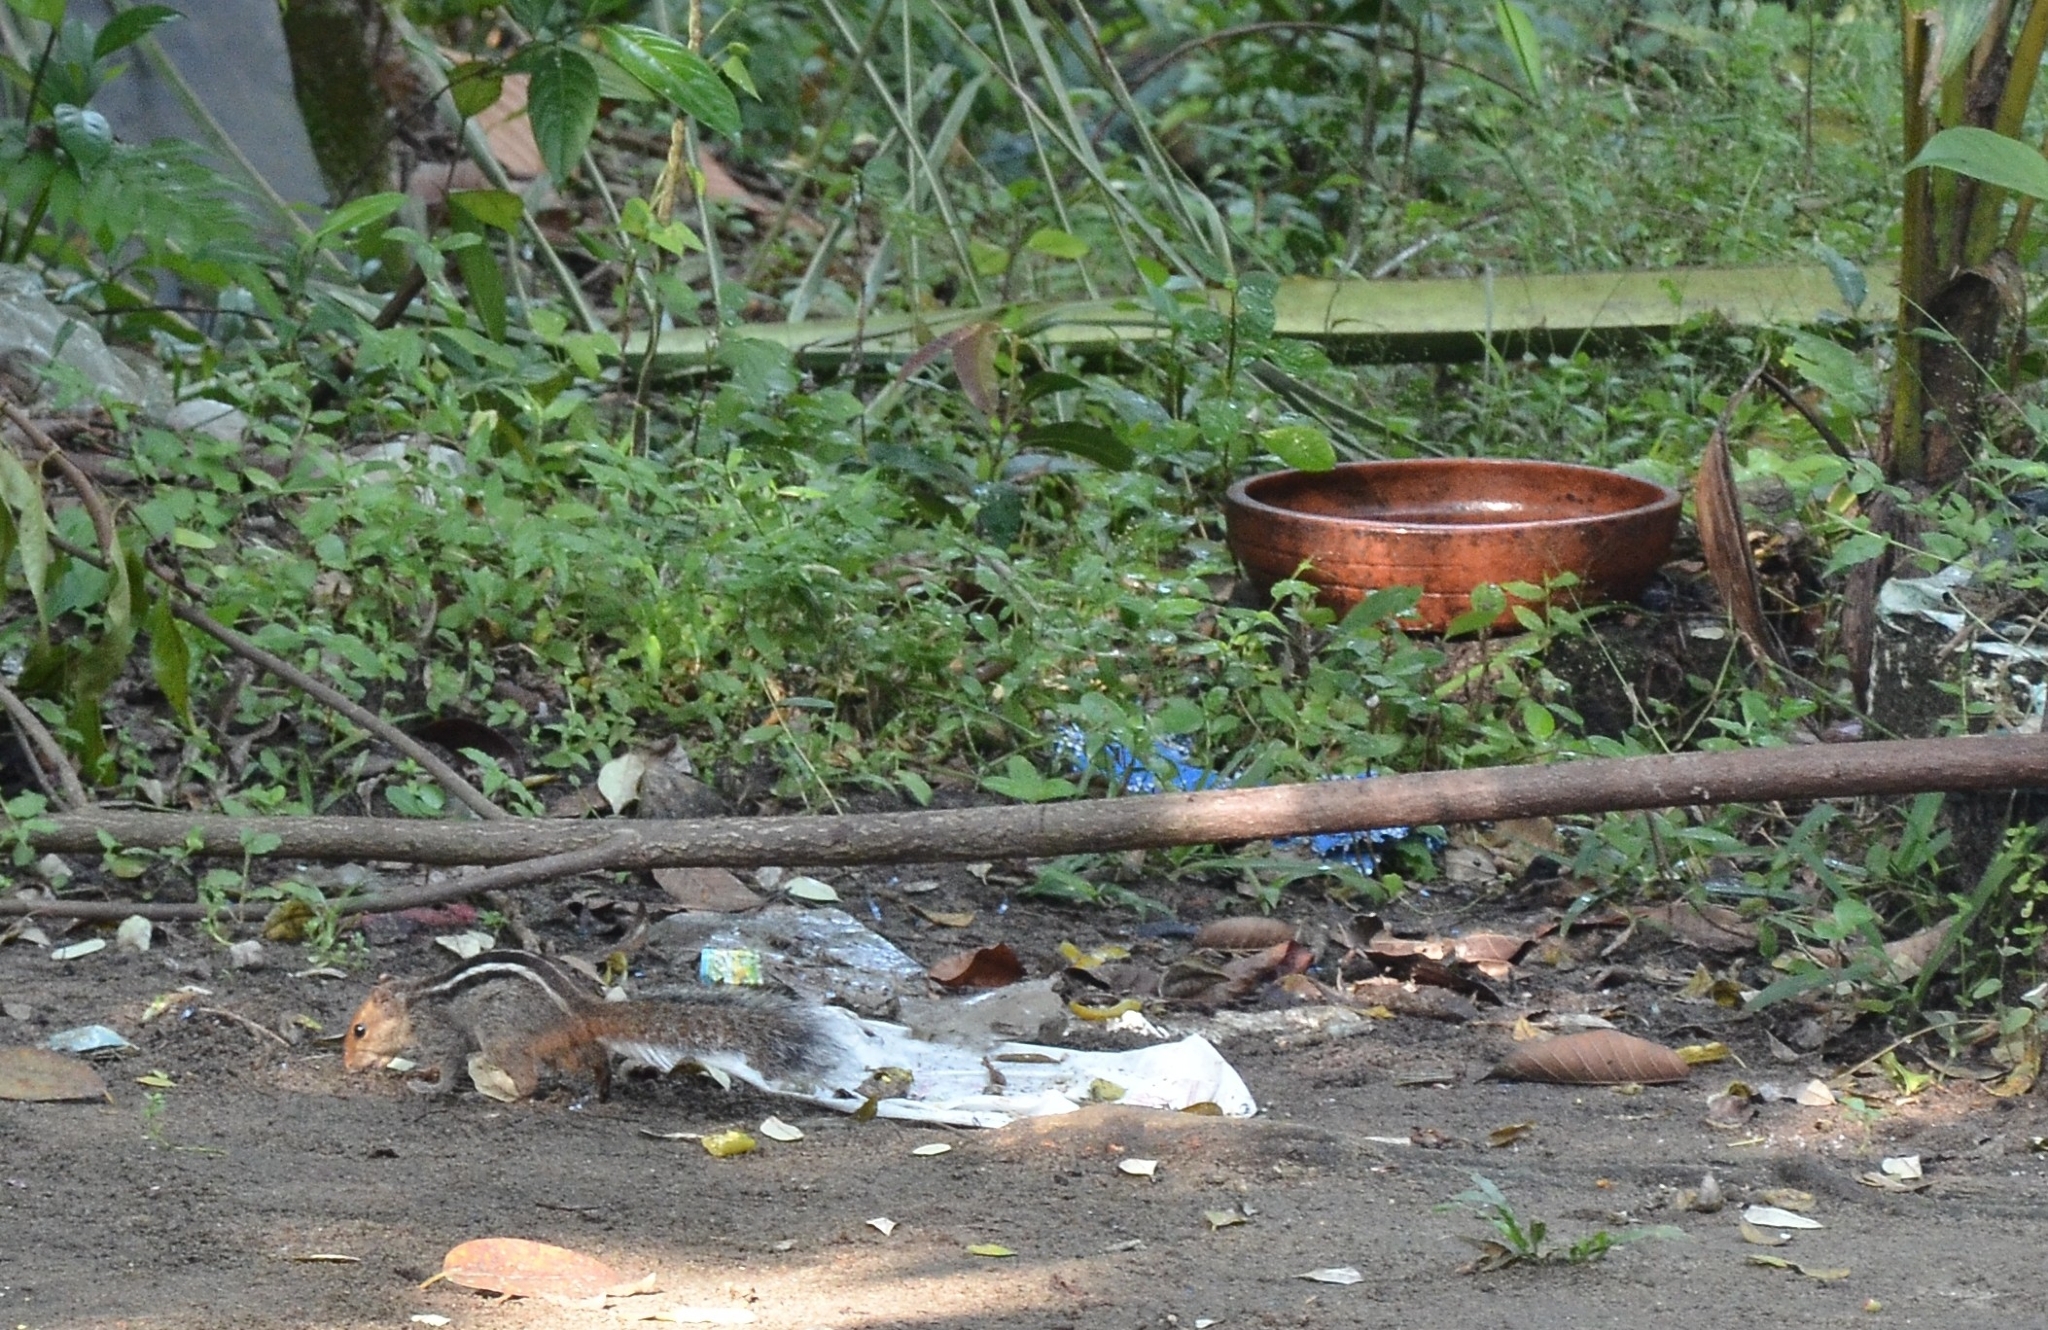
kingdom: Animalia
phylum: Chordata
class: Mammalia
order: Rodentia
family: Sciuridae
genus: Funambulus
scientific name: Funambulus tristriatus
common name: Jungle palm squirrel
